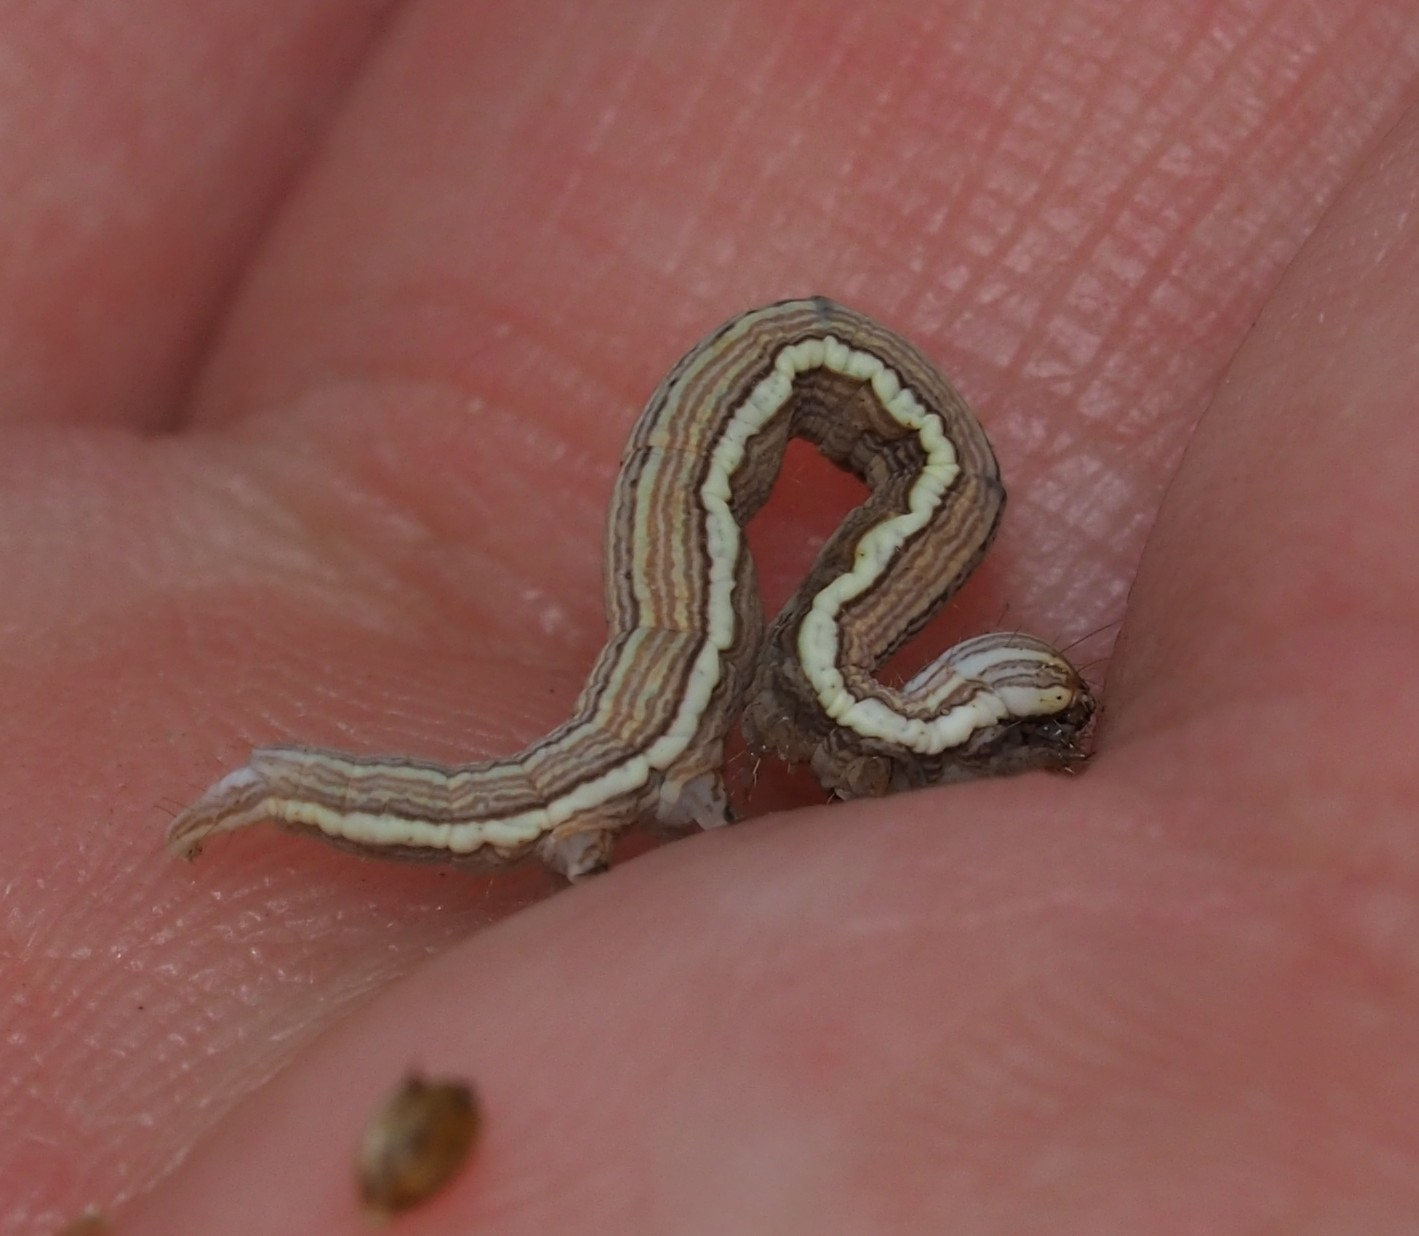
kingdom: Animalia
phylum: Arthropoda
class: Insecta
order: Lepidoptera
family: Erebidae
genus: Callistege
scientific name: Callistege mi
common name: Mother shipton
